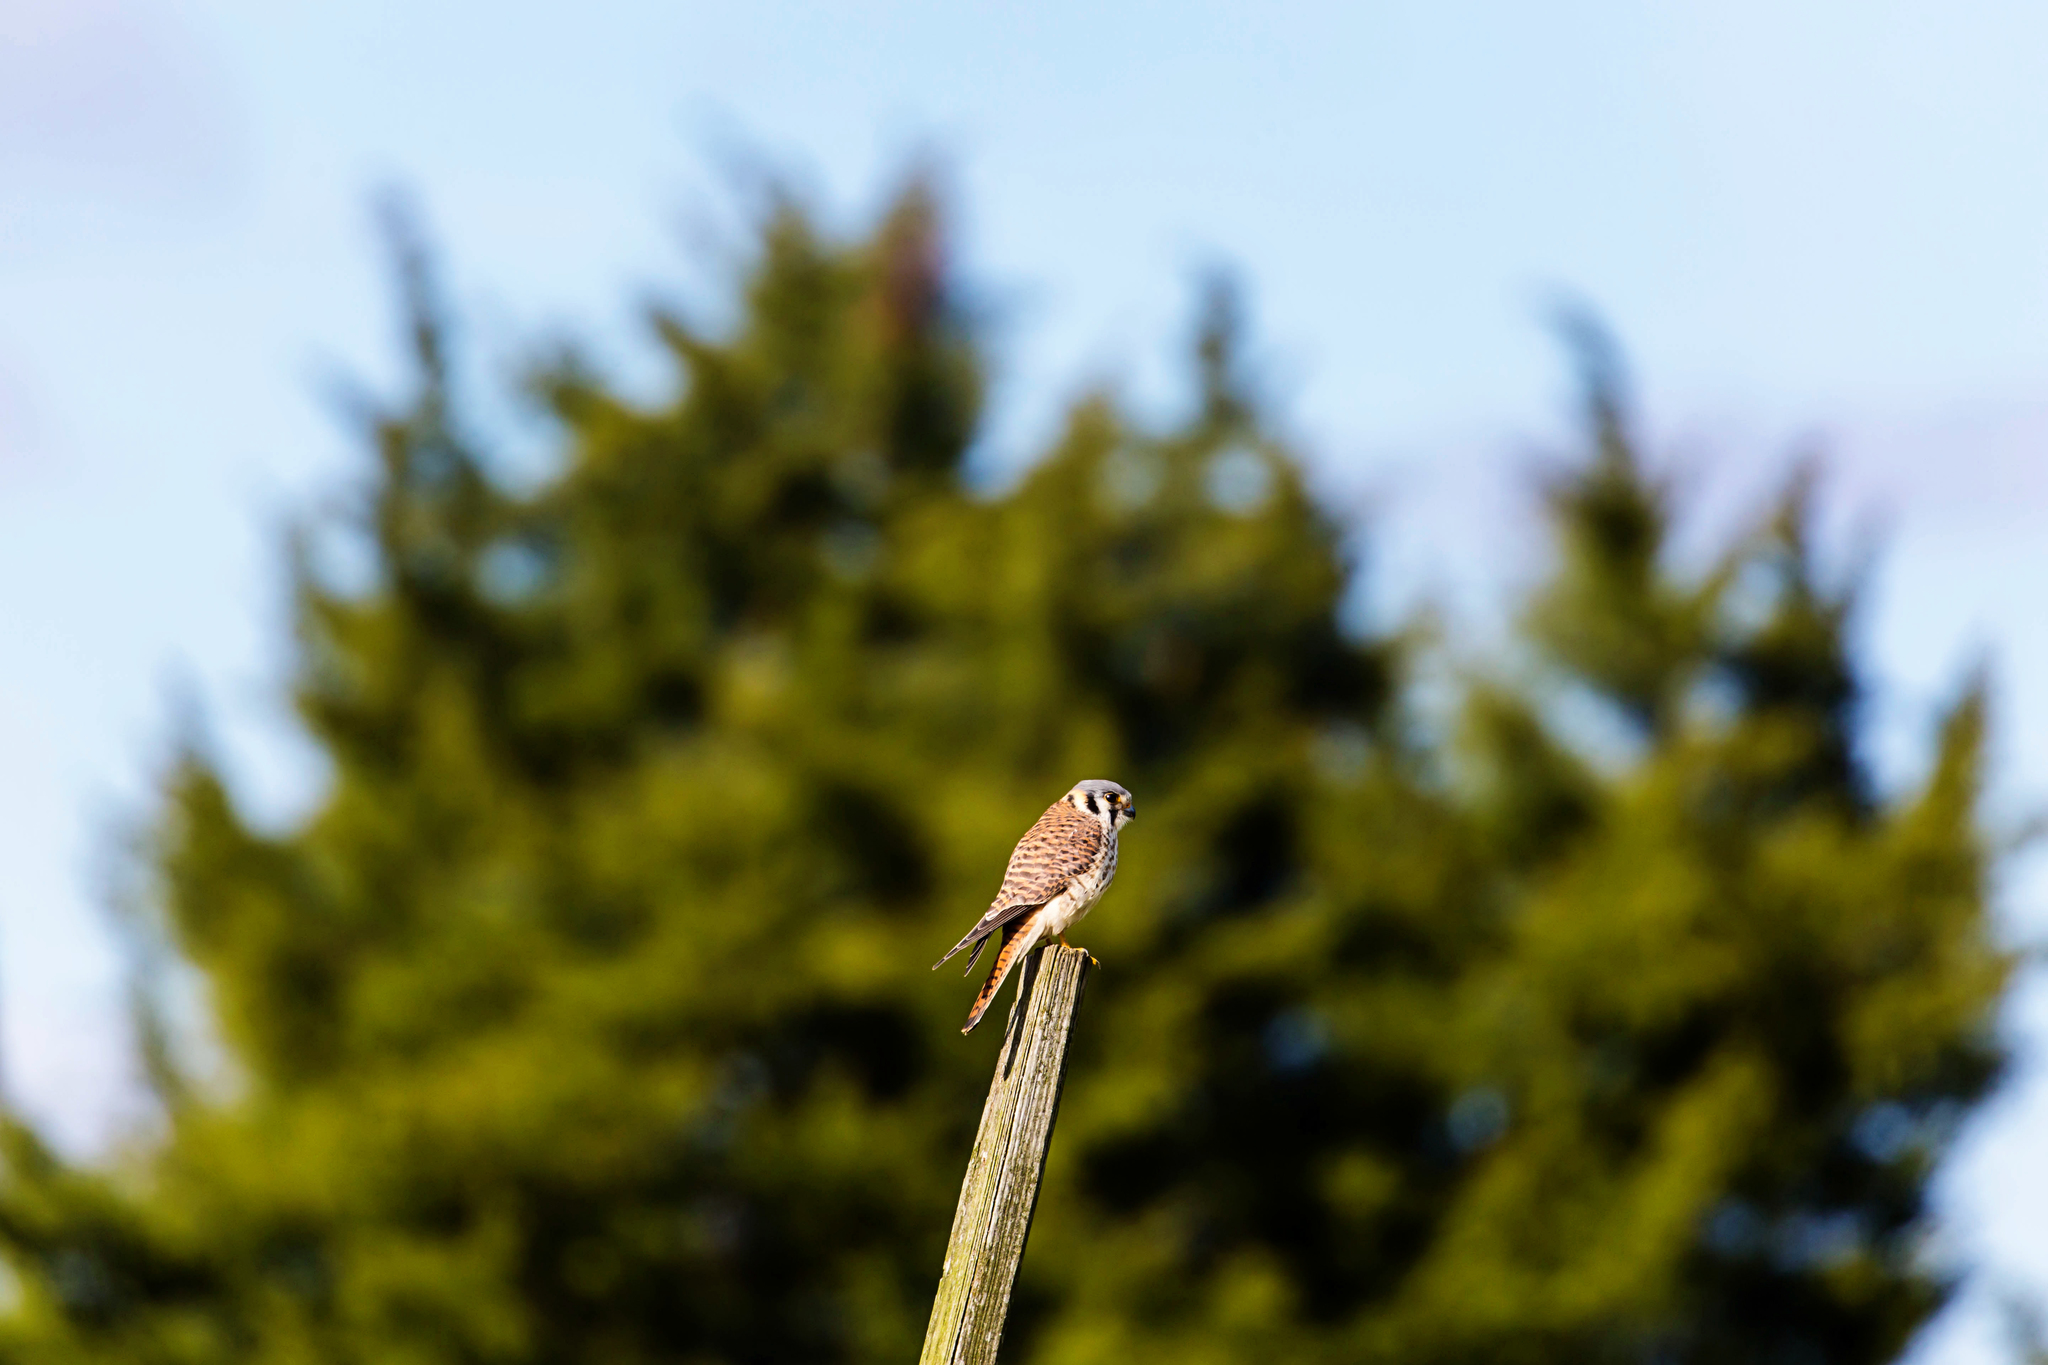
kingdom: Animalia
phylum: Chordata
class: Aves
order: Falconiformes
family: Falconidae
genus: Falco
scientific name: Falco sparverius
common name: American kestrel
